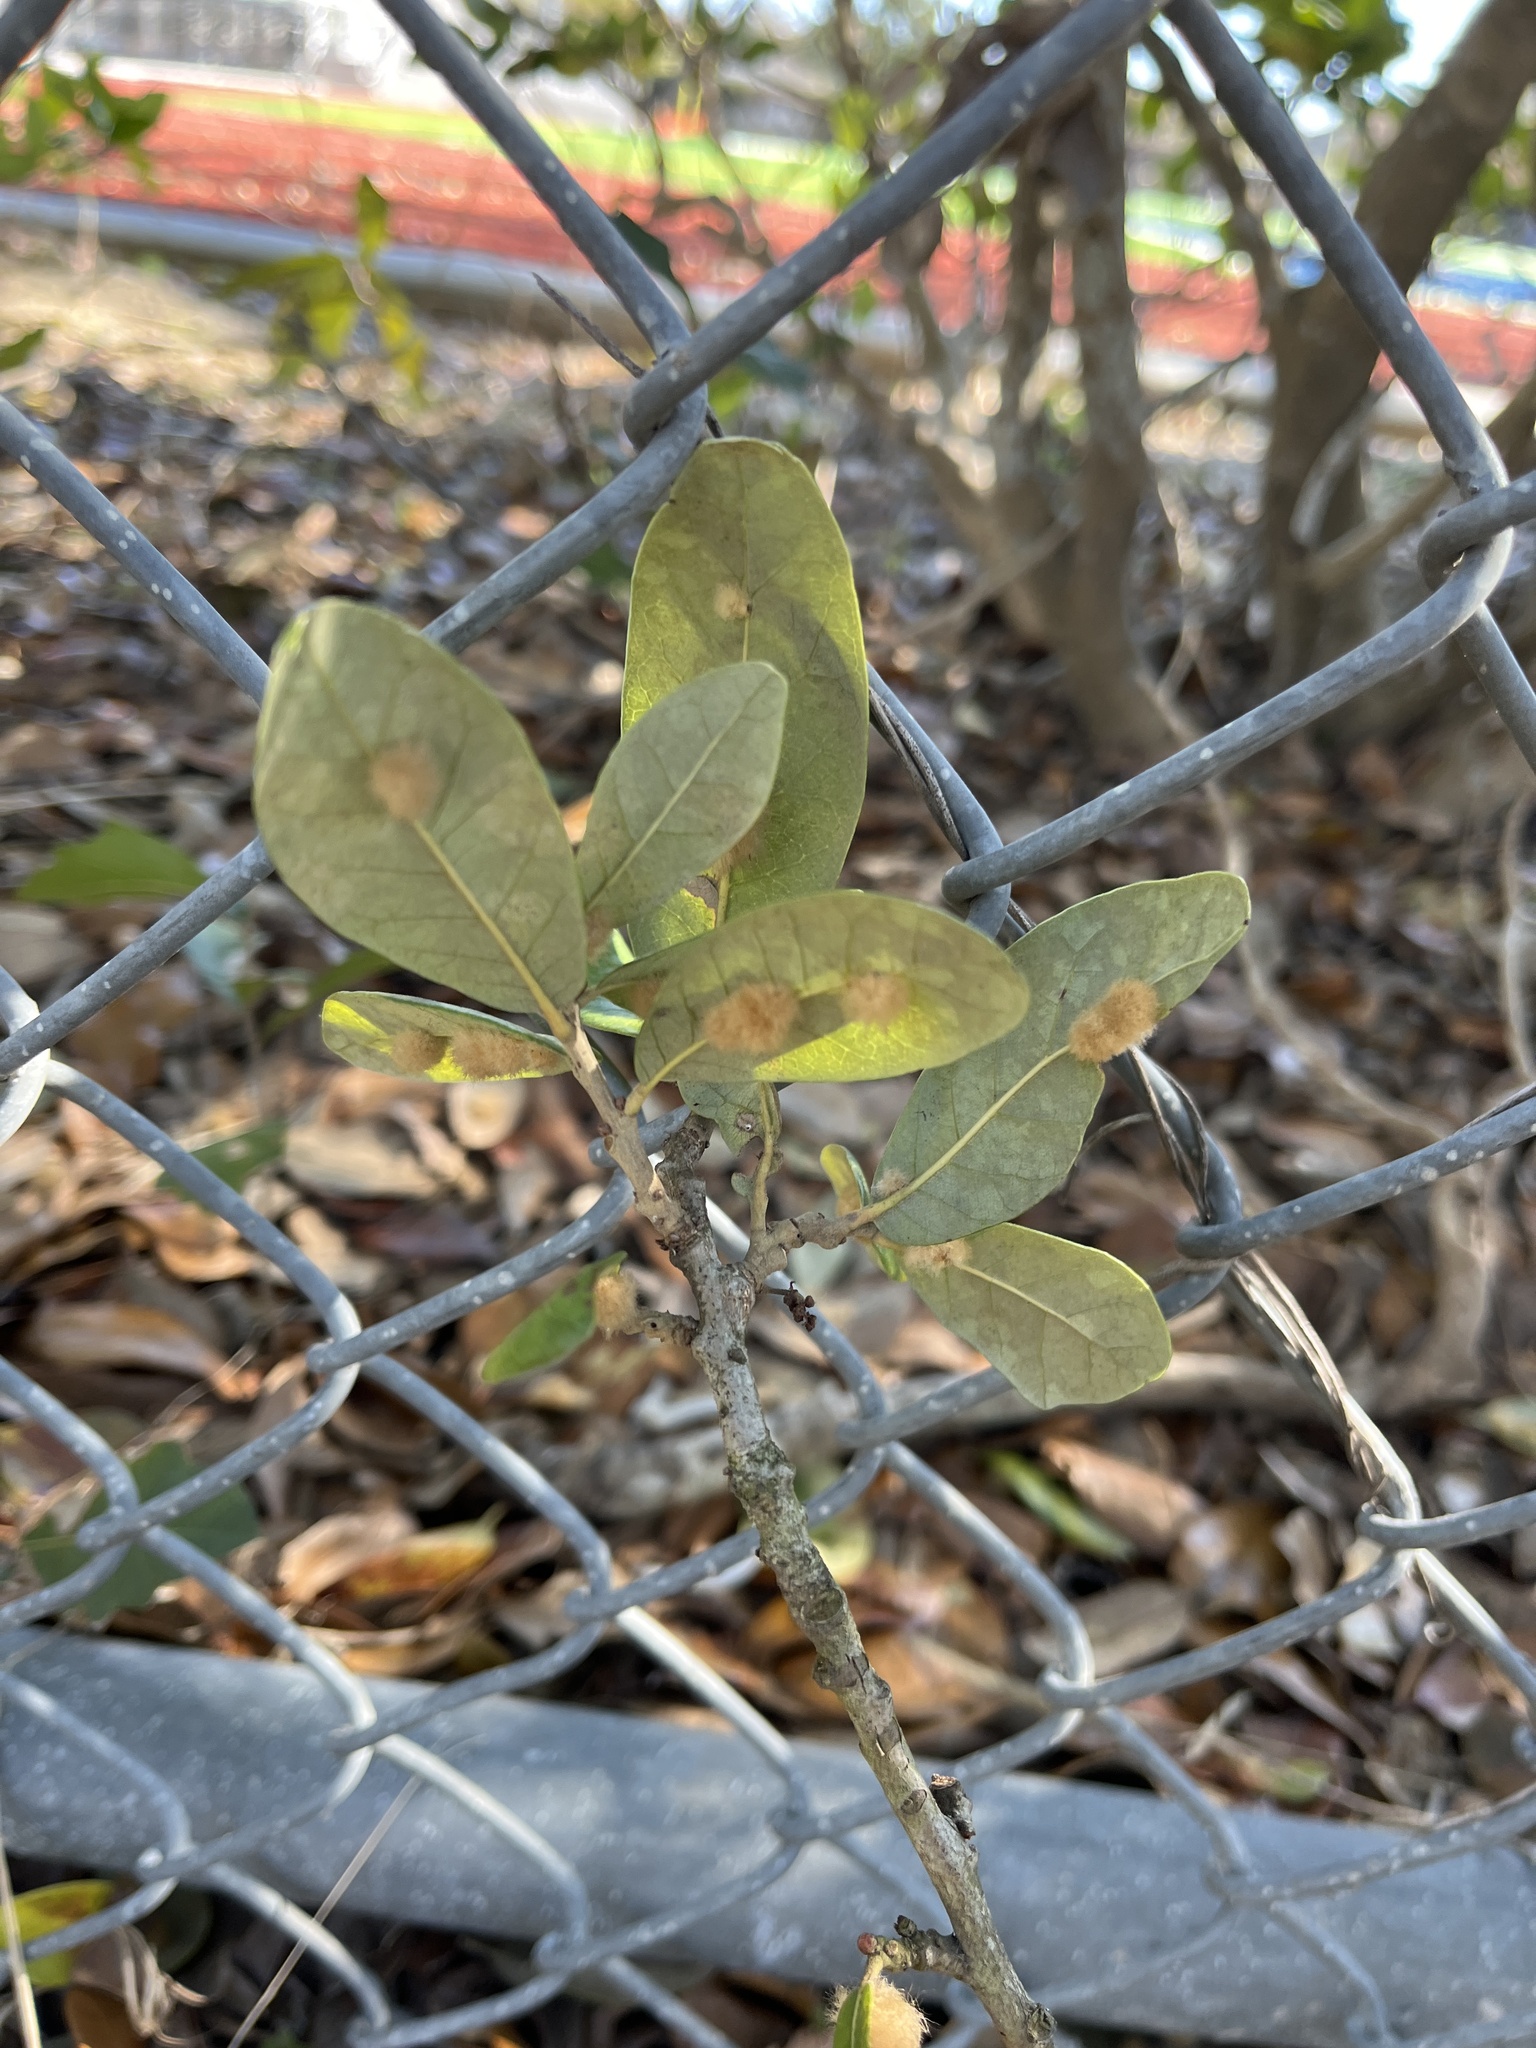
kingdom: Animalia
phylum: Arthropoda
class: Insecta
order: Hymenoptera
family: Cynipidae
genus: Andricus
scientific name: Andricus Druon quercuslanigerum
